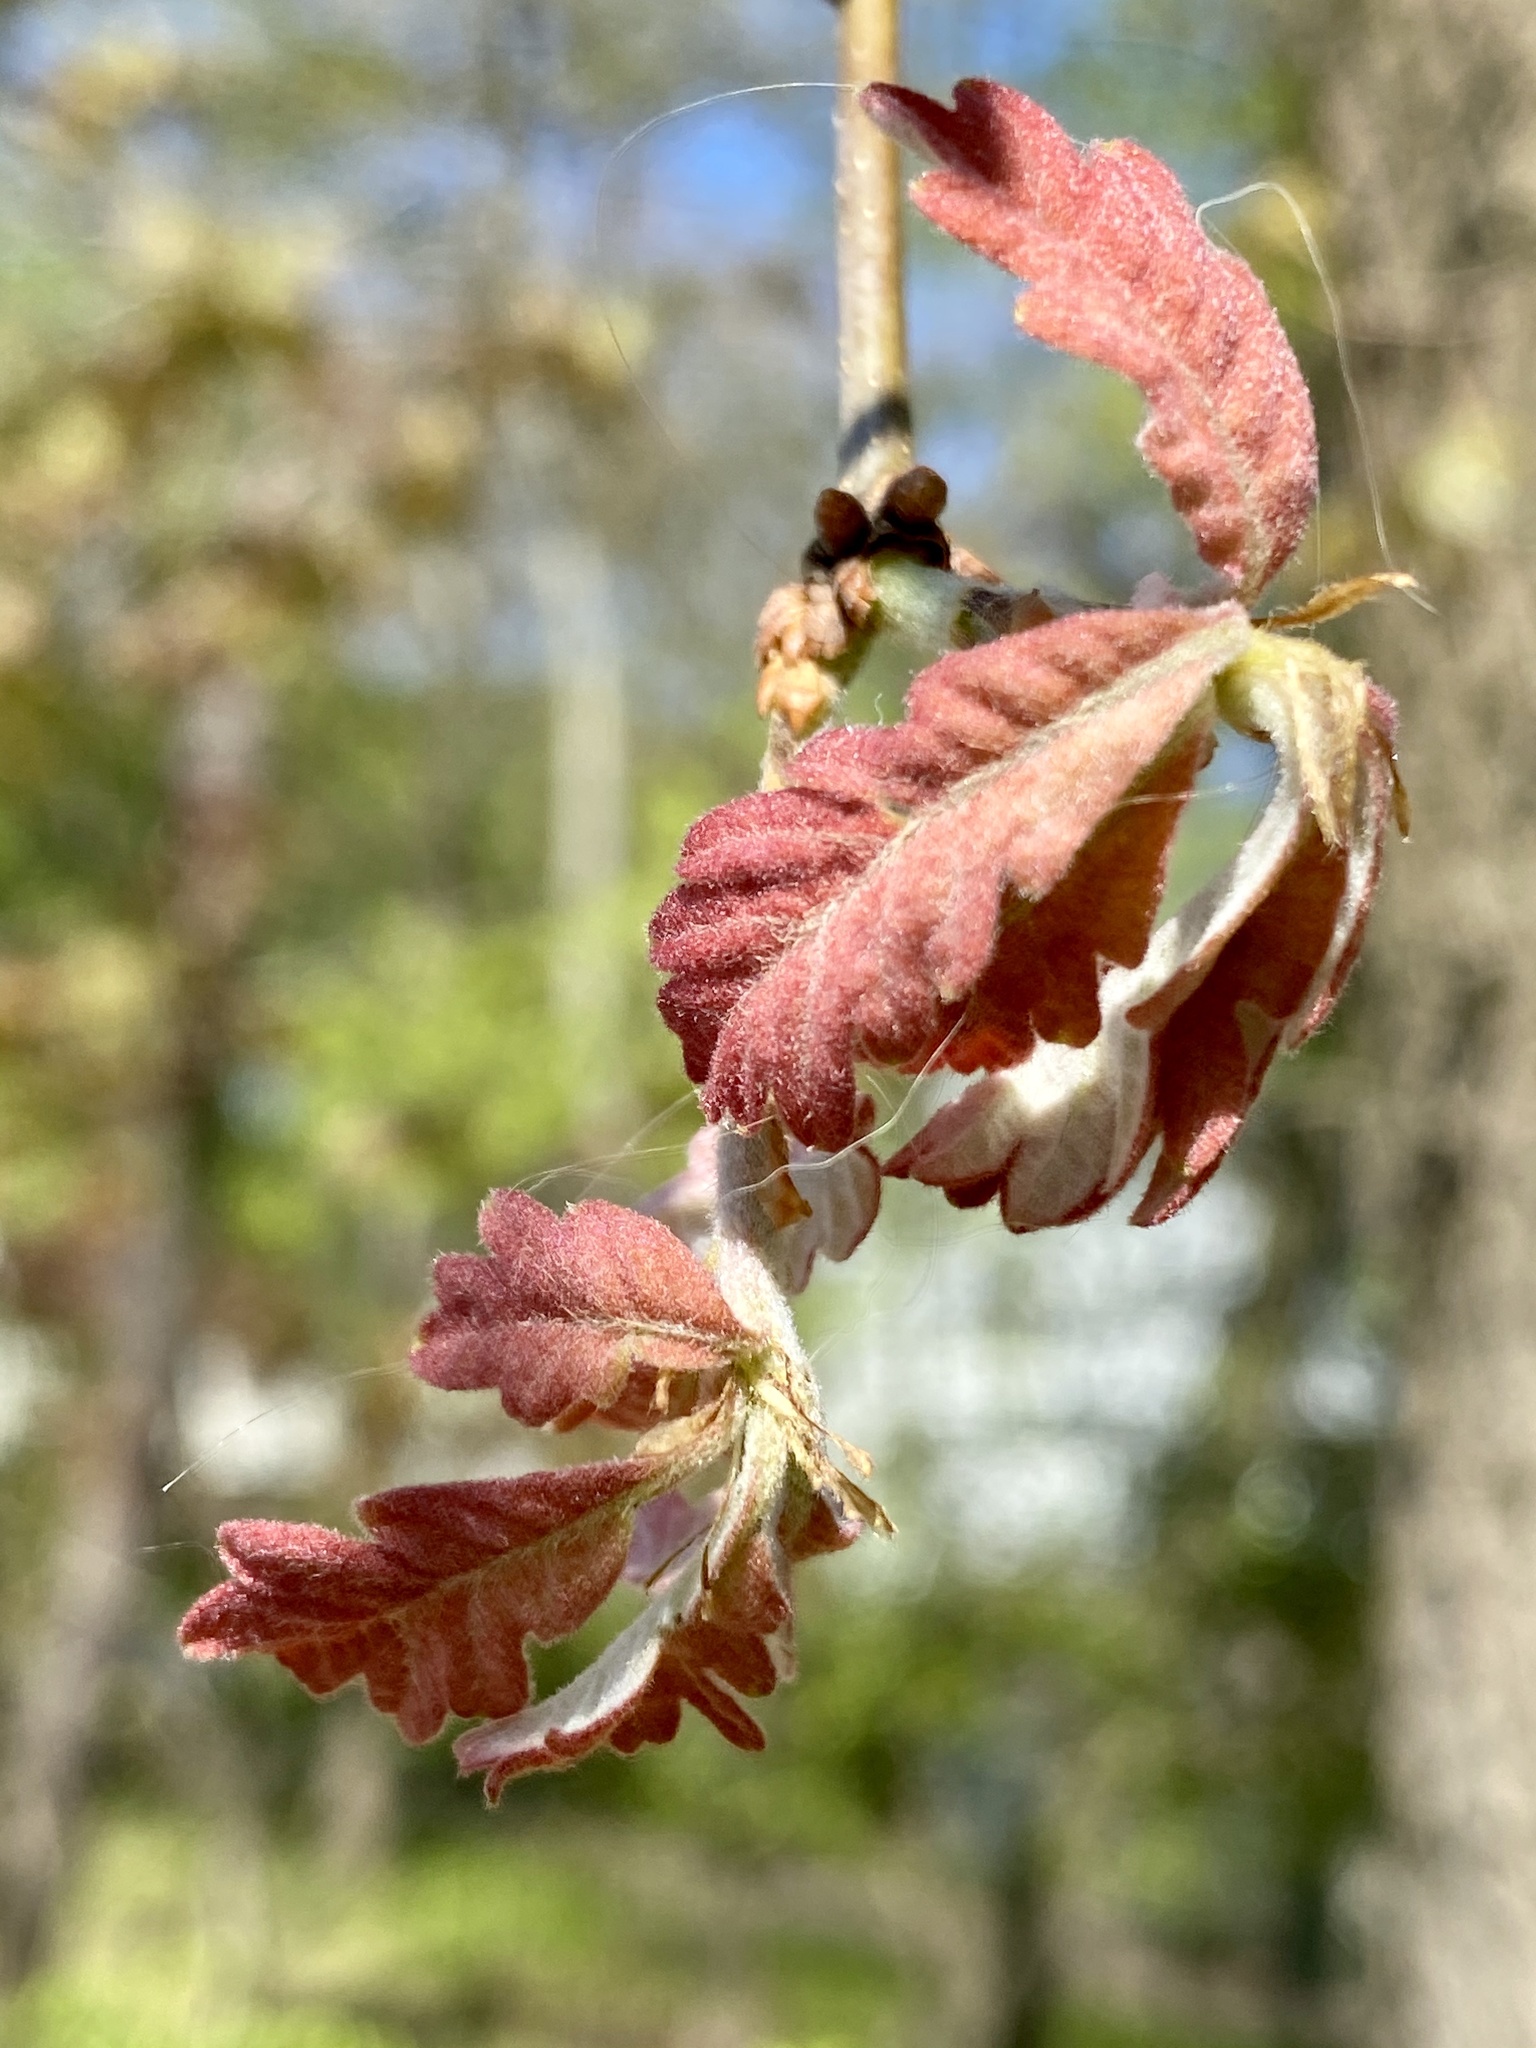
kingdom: Plantae
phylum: Tracheophyta
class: Magnoliopsida
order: Fagales
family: Fagaceae
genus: Quercus
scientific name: Quercus alba
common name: White oak
